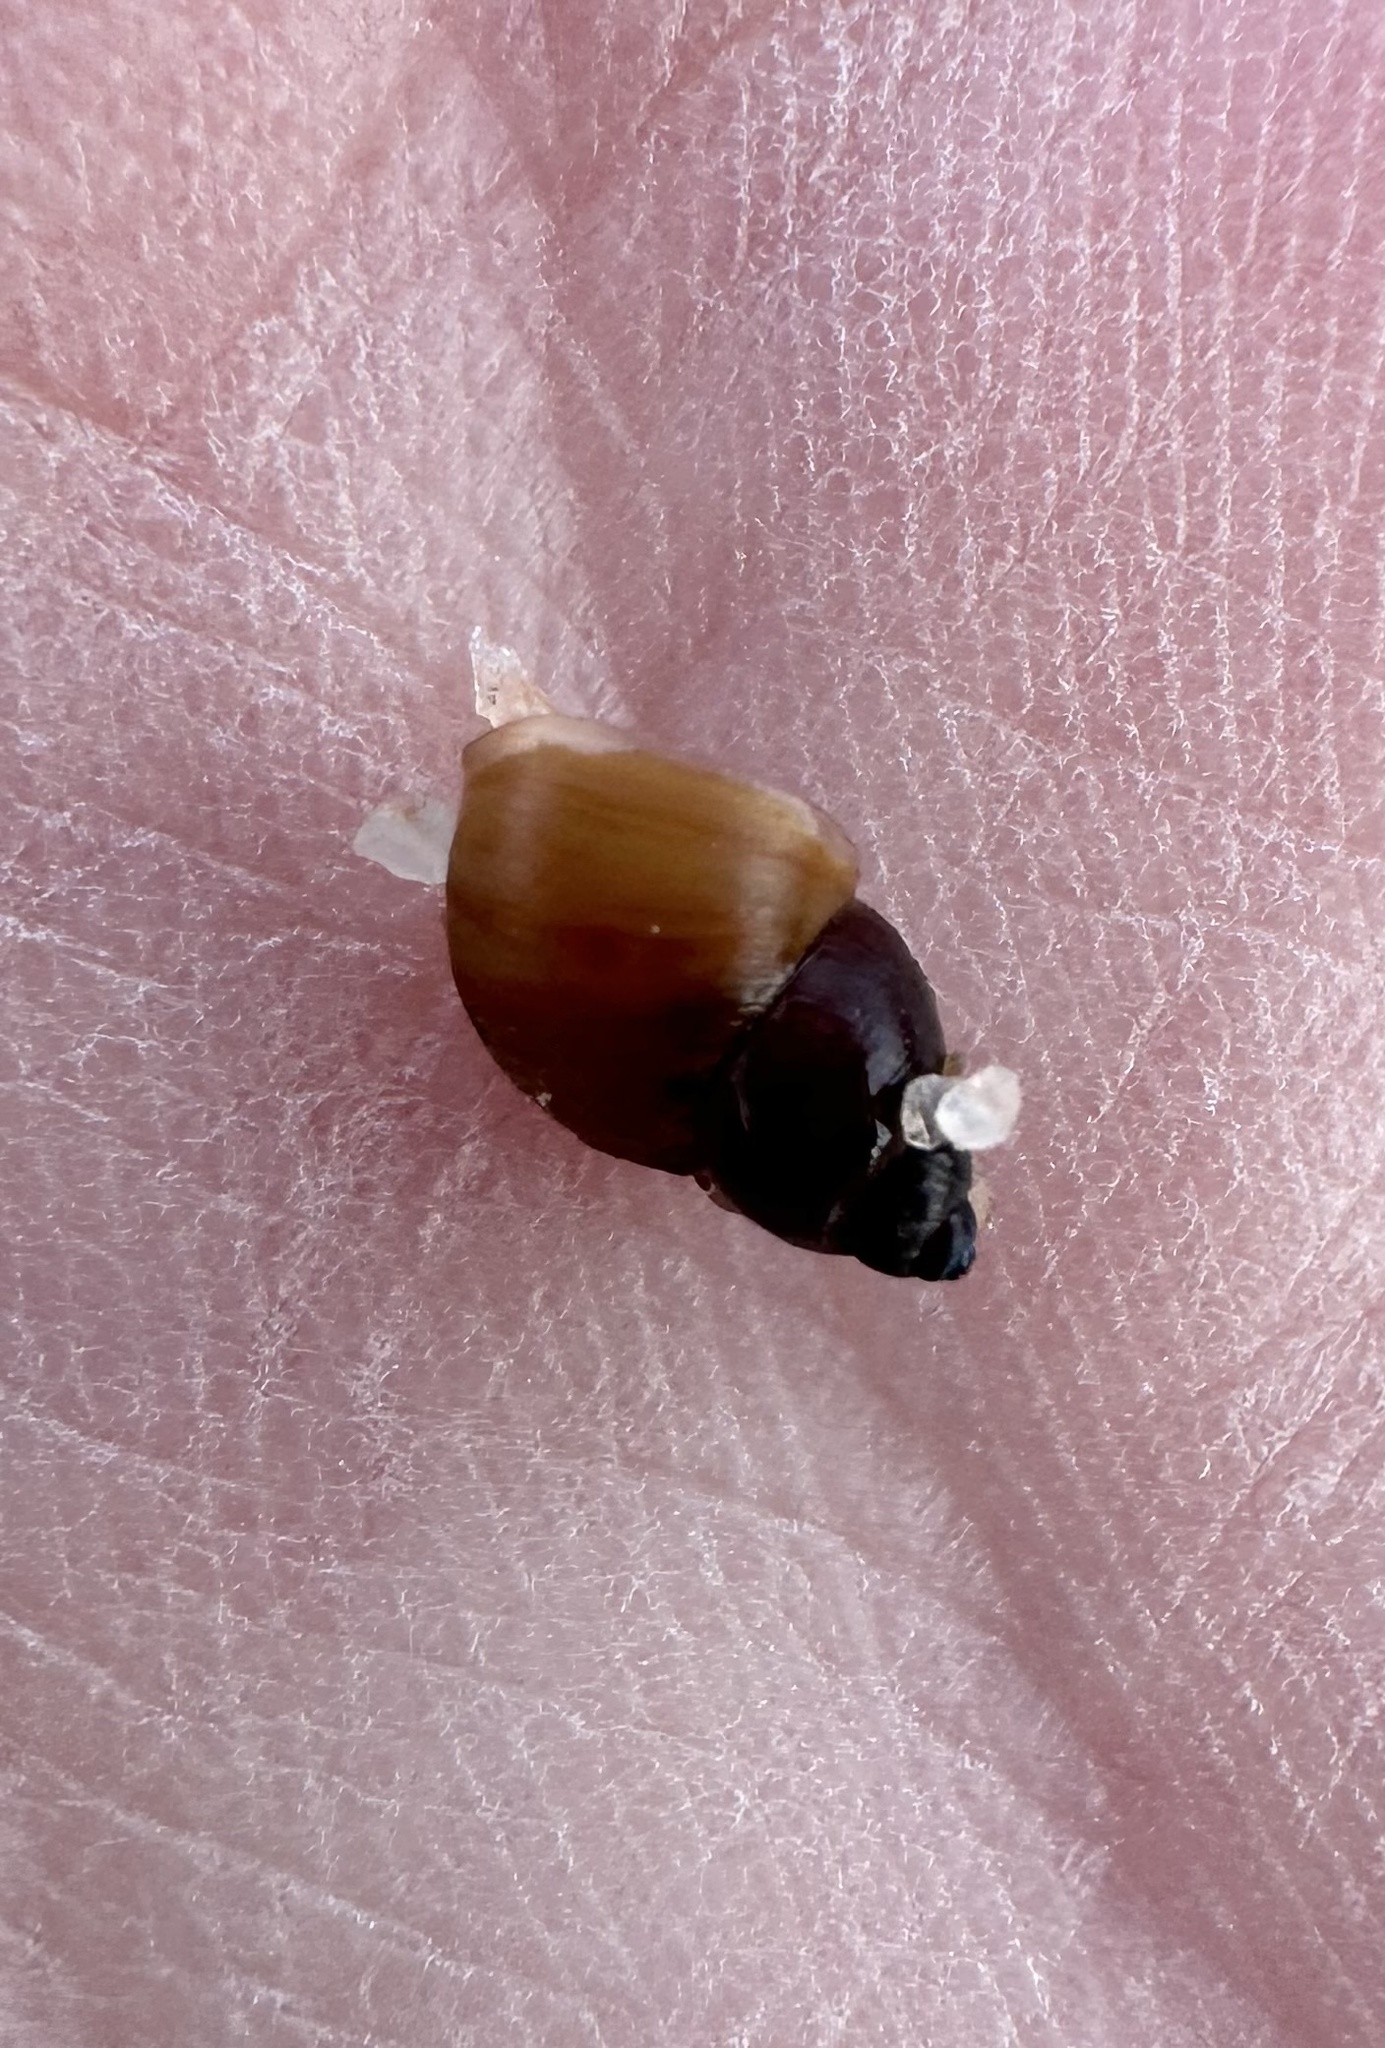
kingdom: Animalia
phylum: Mollusca
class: Gastropoda
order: Littorinimorpha
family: Littorinidae
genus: Lacuna
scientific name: Lacuna vincta
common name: Banded chink shell
